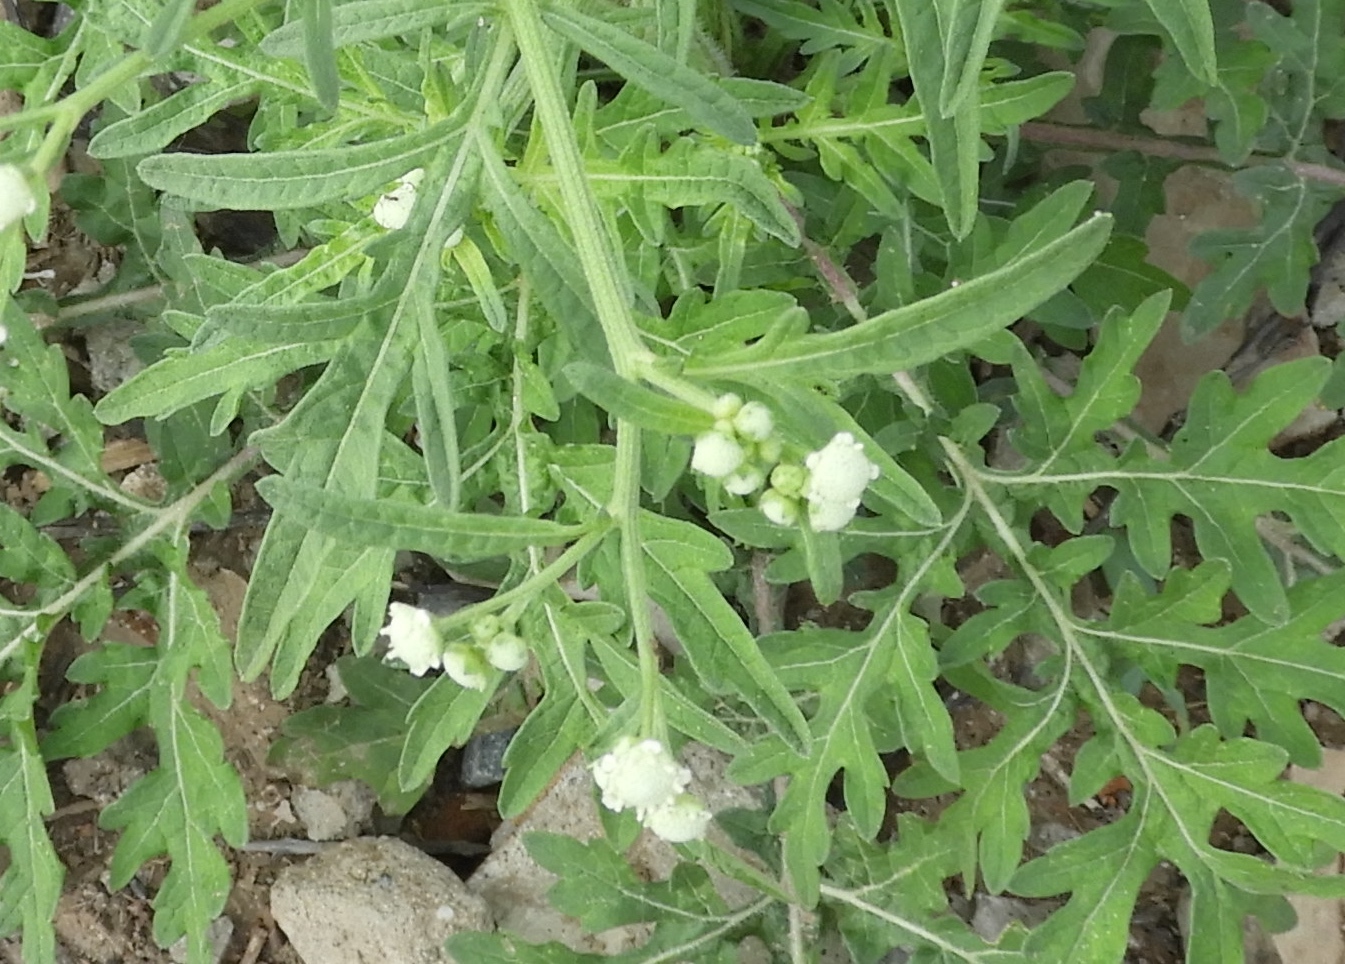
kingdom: Plantae
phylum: Tracheophyta
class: Magnoliopsida
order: Asterales
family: Asteraceae
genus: Parthenium
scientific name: Parthenium hysterophorus
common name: Santa maria feverfew
